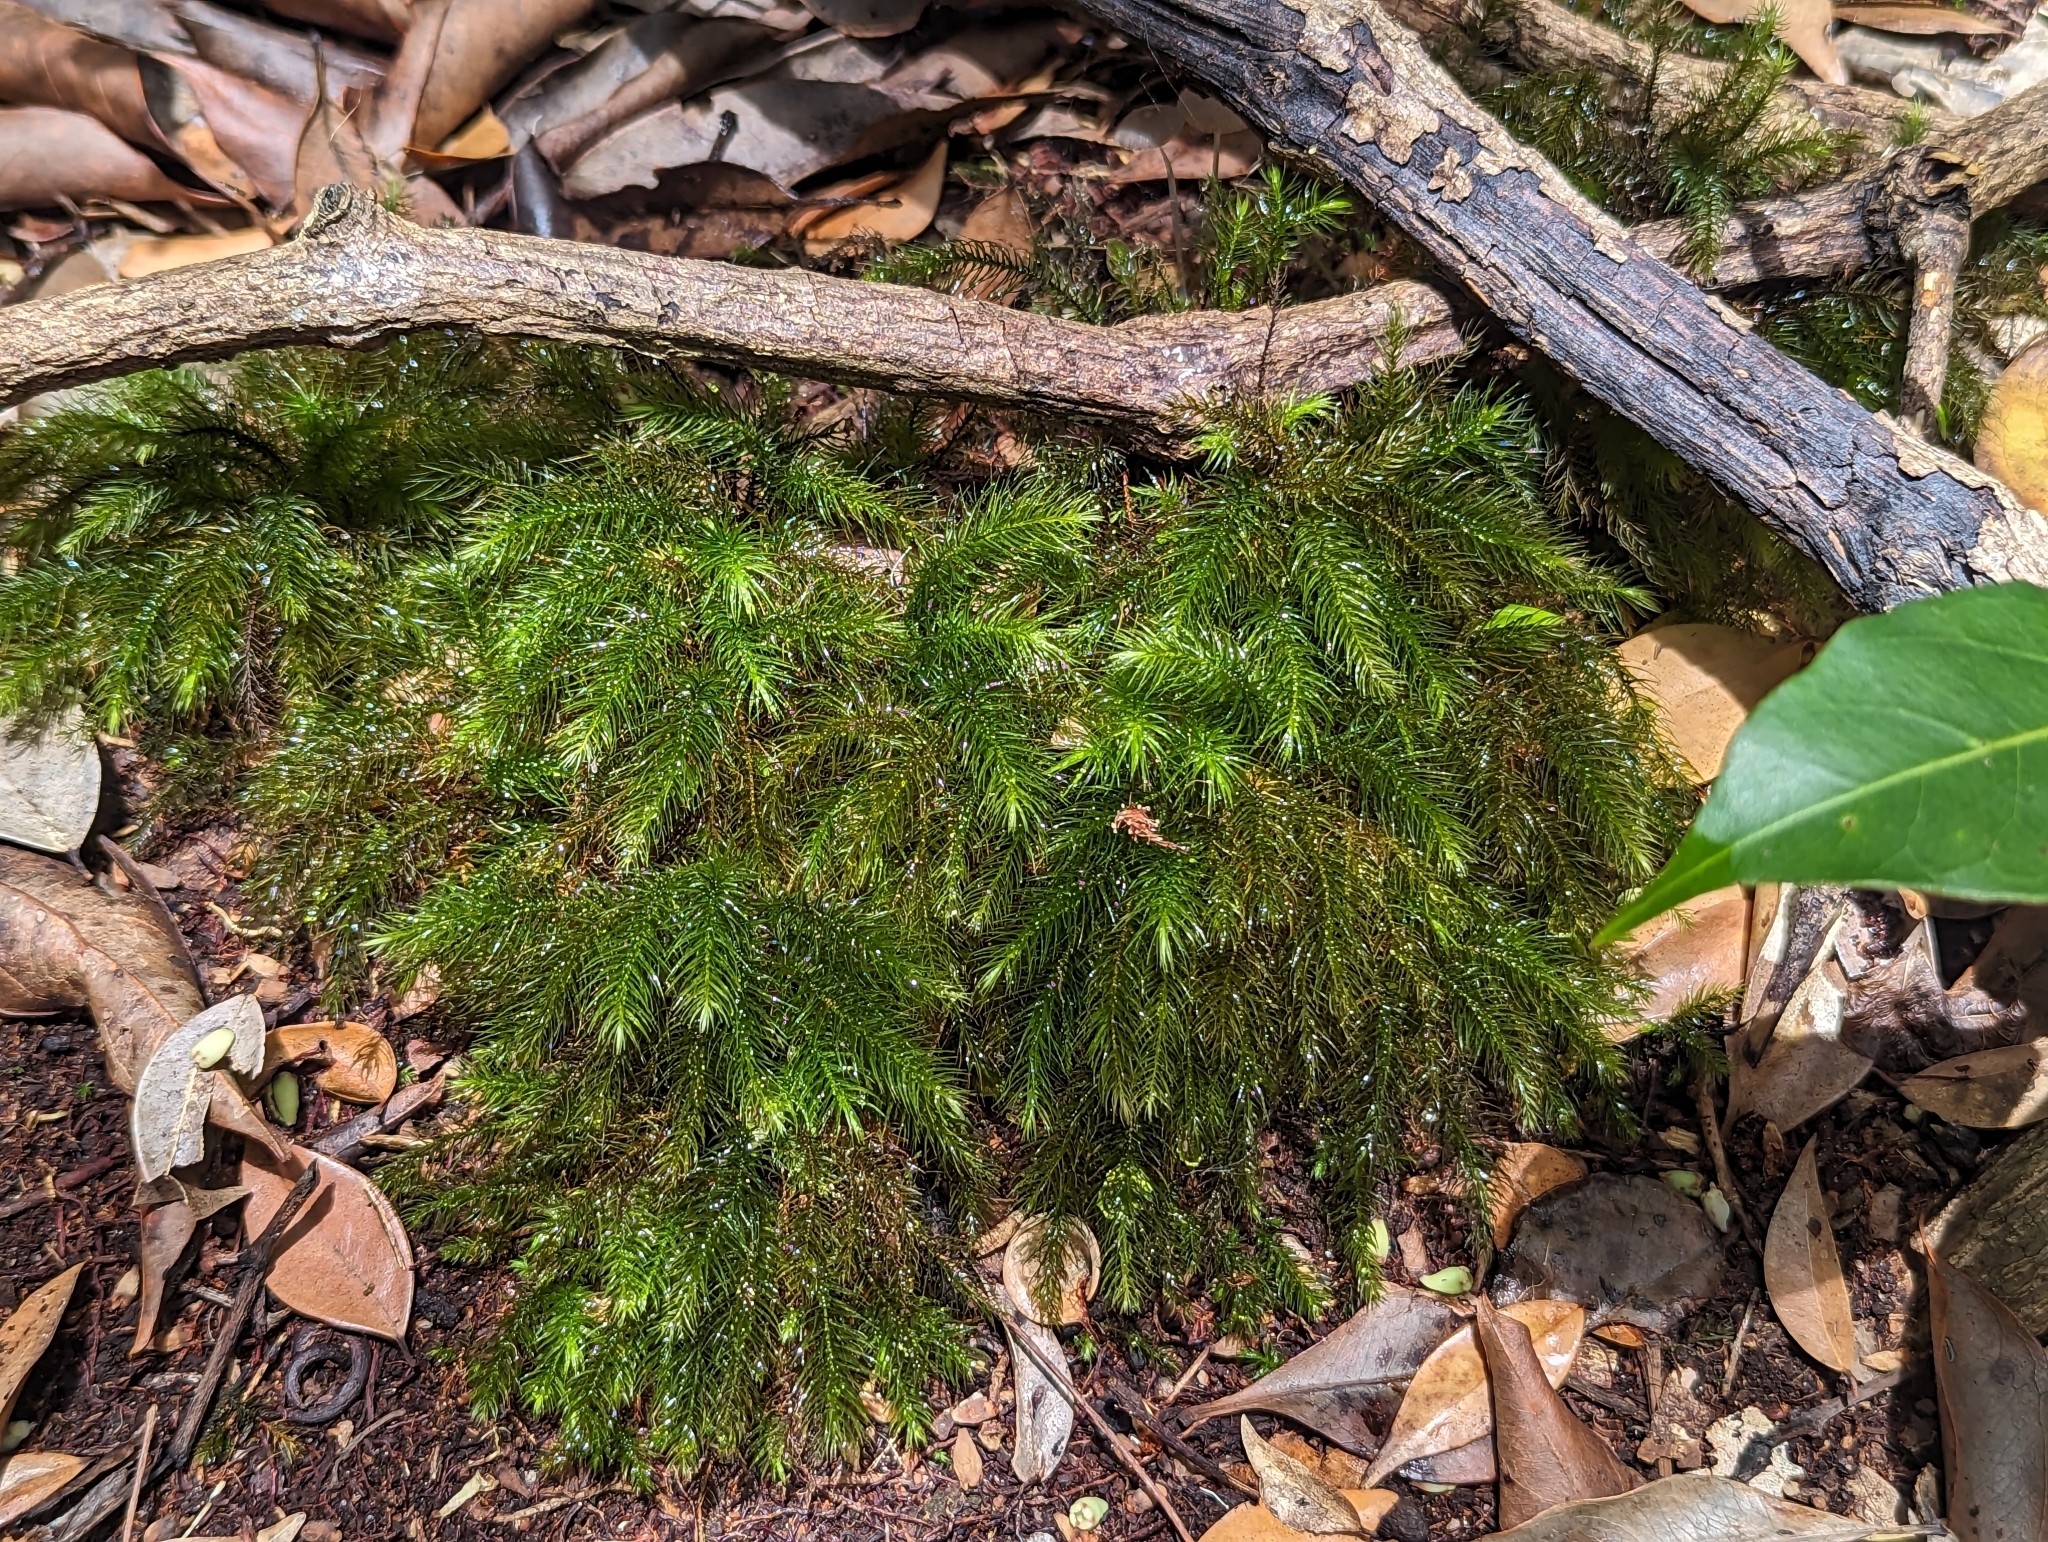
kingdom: Plantae
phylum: Bryophyta
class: Bryopsida
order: Rhizogoniales
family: Calomniaceae
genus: Pyrrhobryum
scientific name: Pyrrhobryum paramattense
